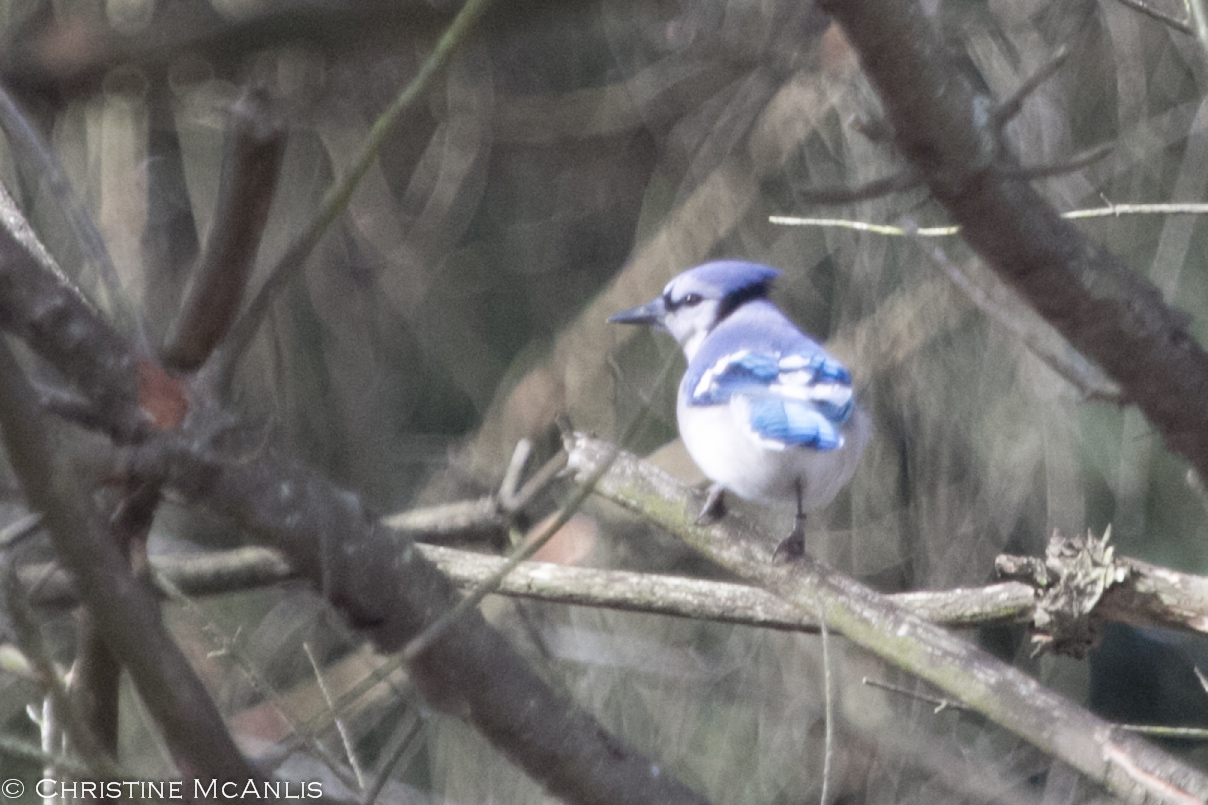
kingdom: Animalia
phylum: Chordata
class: Aves
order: Passeriformes
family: Corvidae
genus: Cyanocitta
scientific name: Cyanocitta cristata
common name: Blue jay
